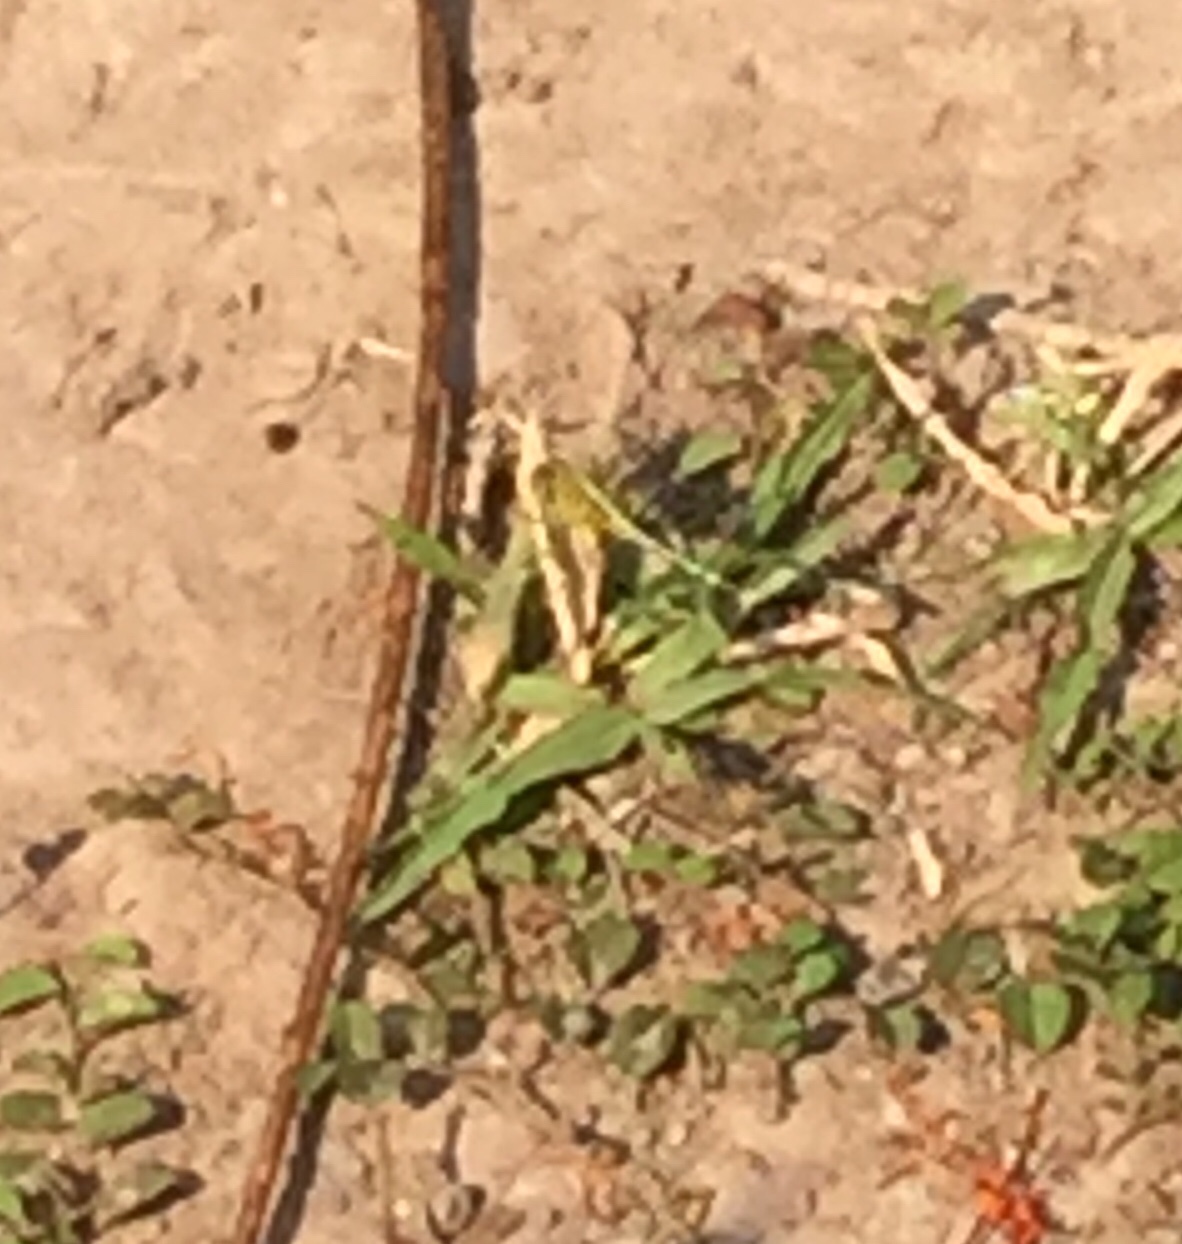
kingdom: Animalia
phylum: Arthropoda
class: Insecta
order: Odonata
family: Libellulidae
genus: Diplacodes
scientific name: Diplacodes trivialis
